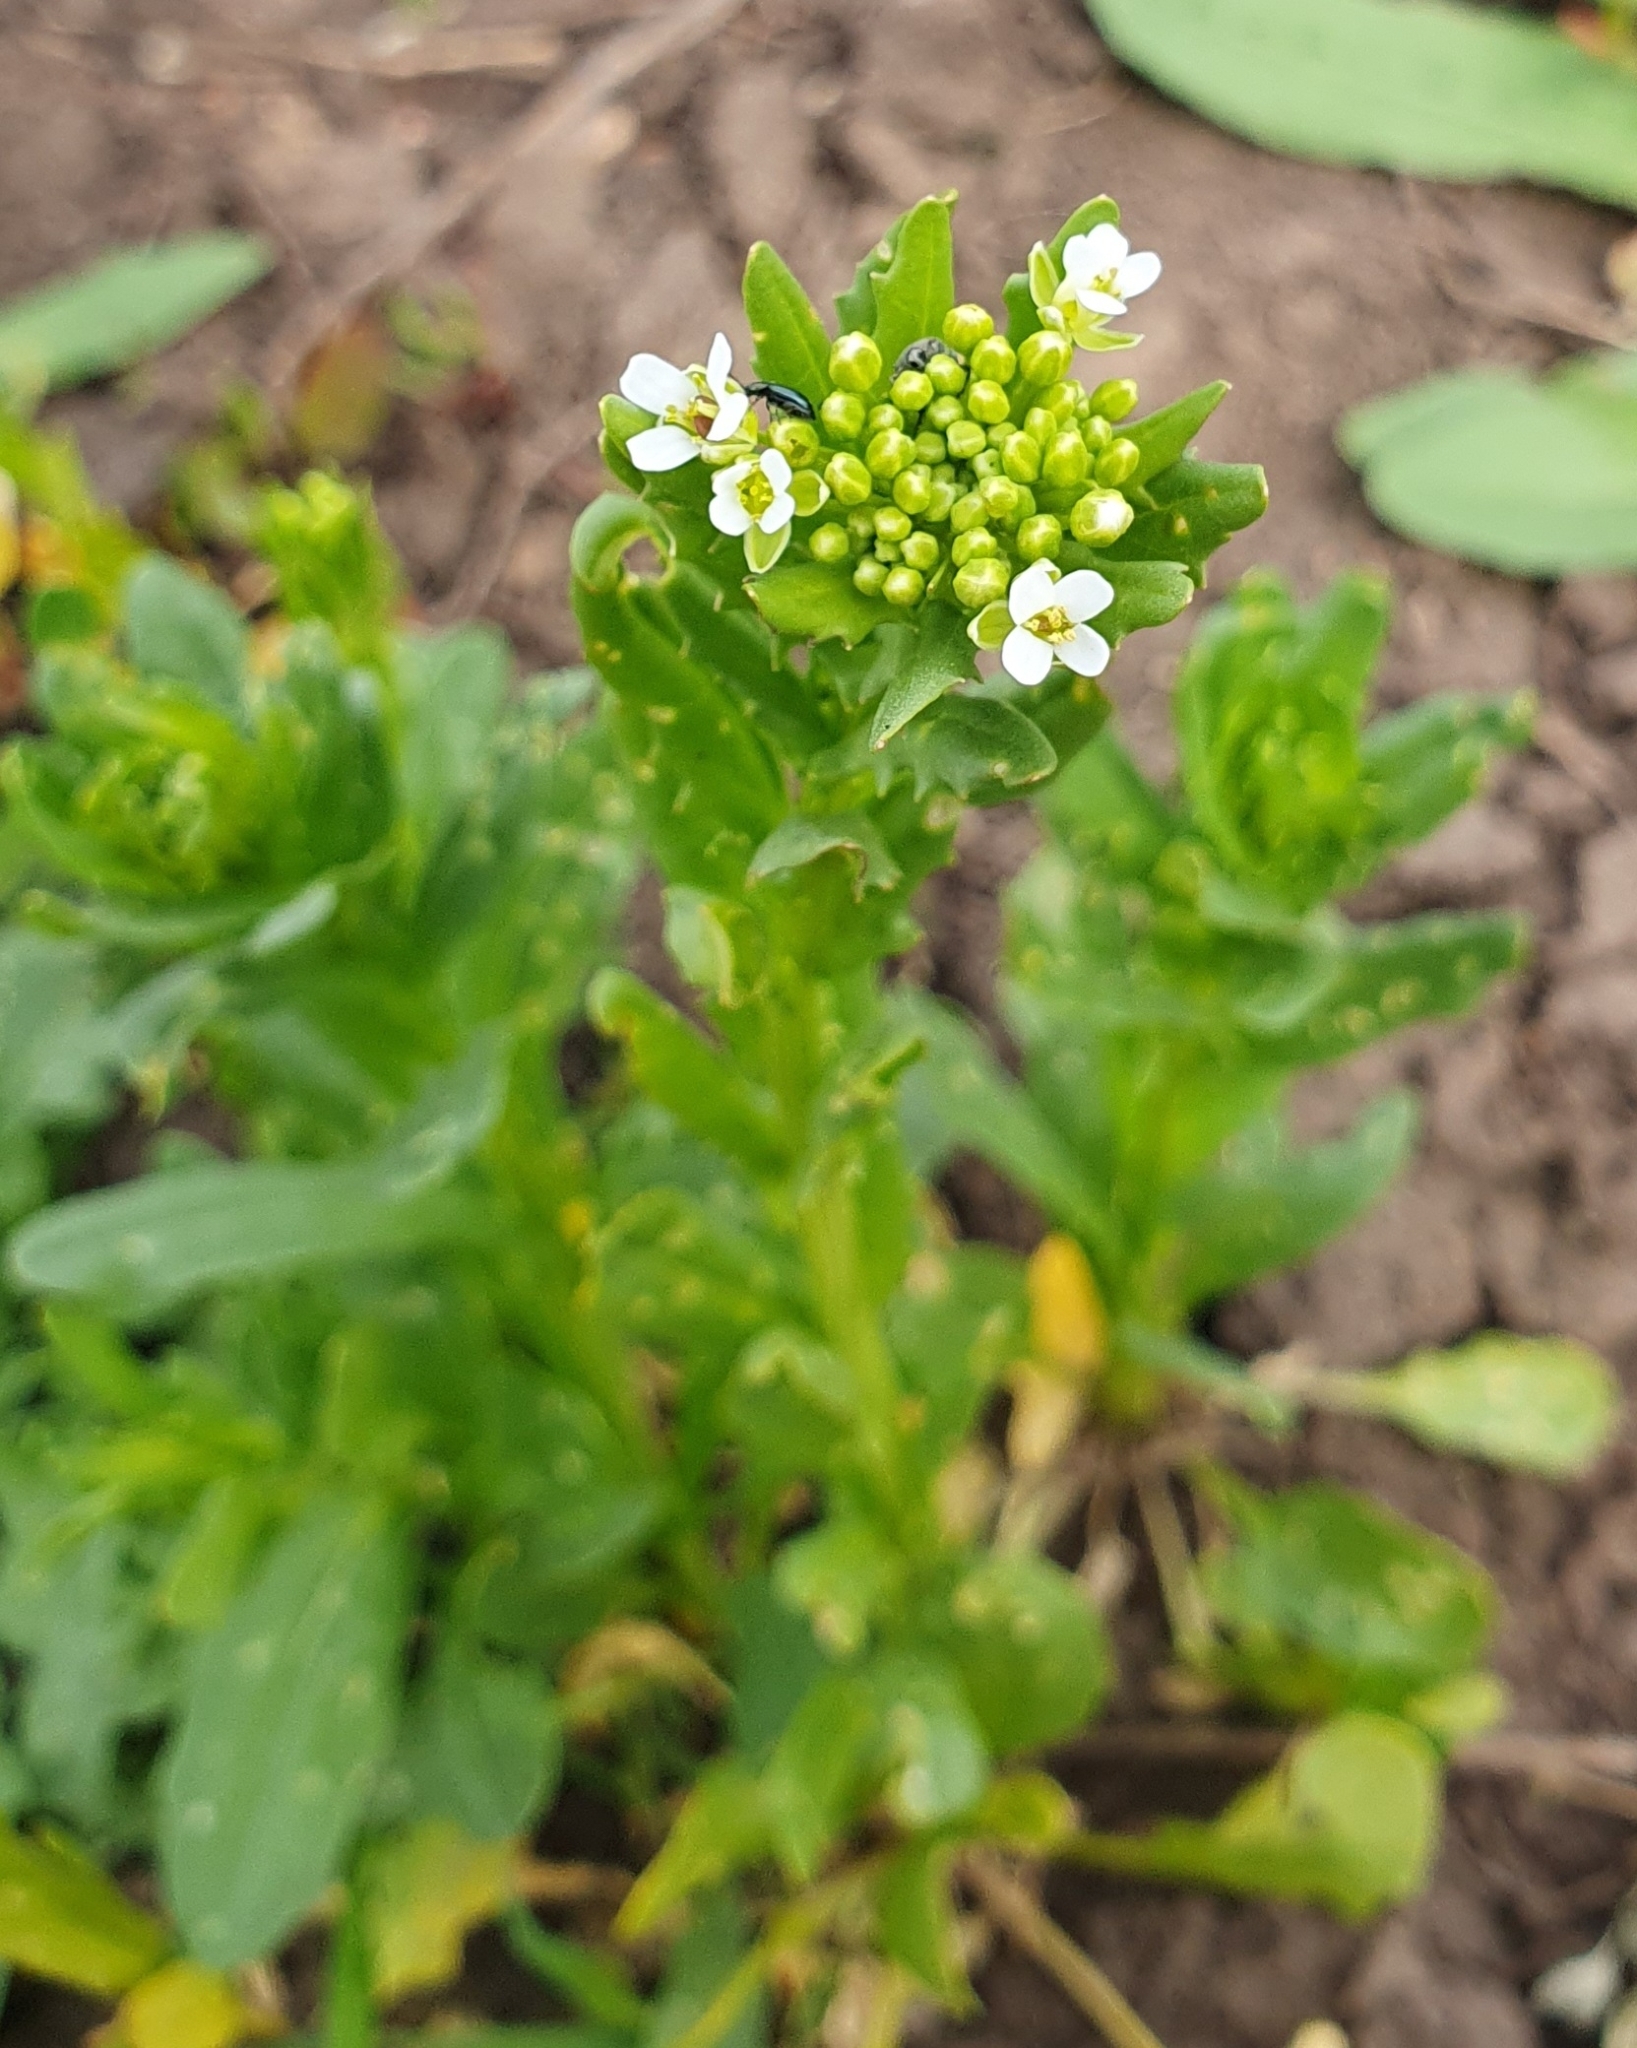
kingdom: Plantae
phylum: Tracheophyta
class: Magnoliopsida
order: Brassicales
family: Brassicaceae
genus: Thlaspi
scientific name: Thlaspi arvense
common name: Field pennycress
